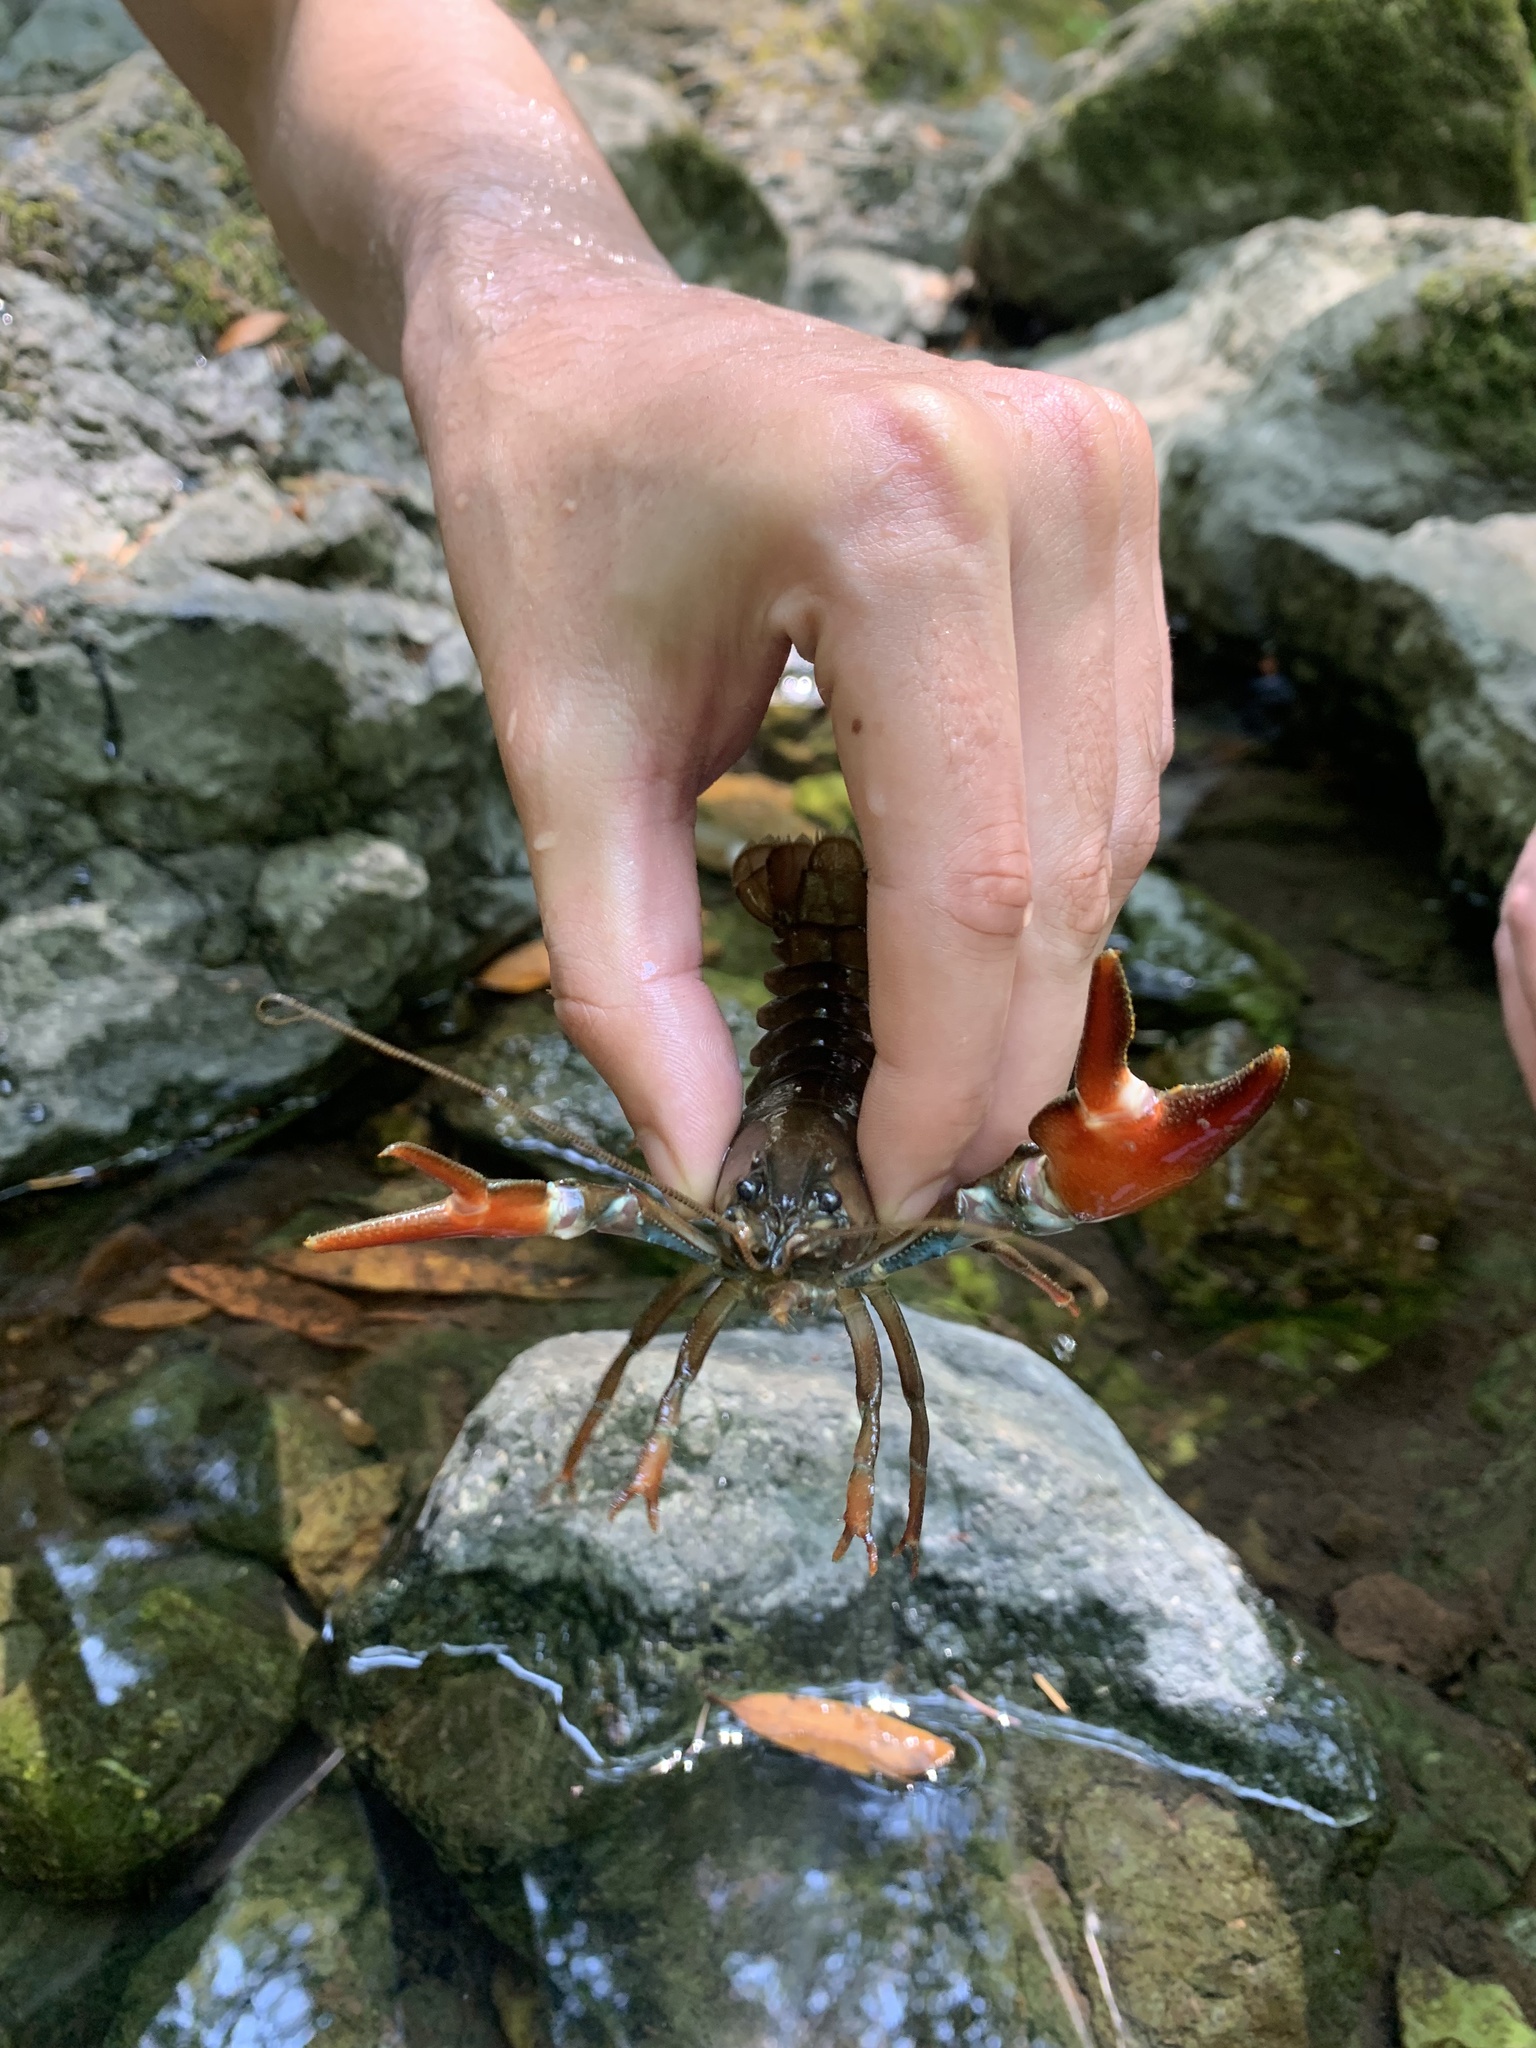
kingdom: Animalia
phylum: Arthropoda
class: Malacostraca
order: Decapoda
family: Astacidae
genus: Pacifastacus
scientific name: Pacifastacus leniusculus
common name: Signal crayfish
